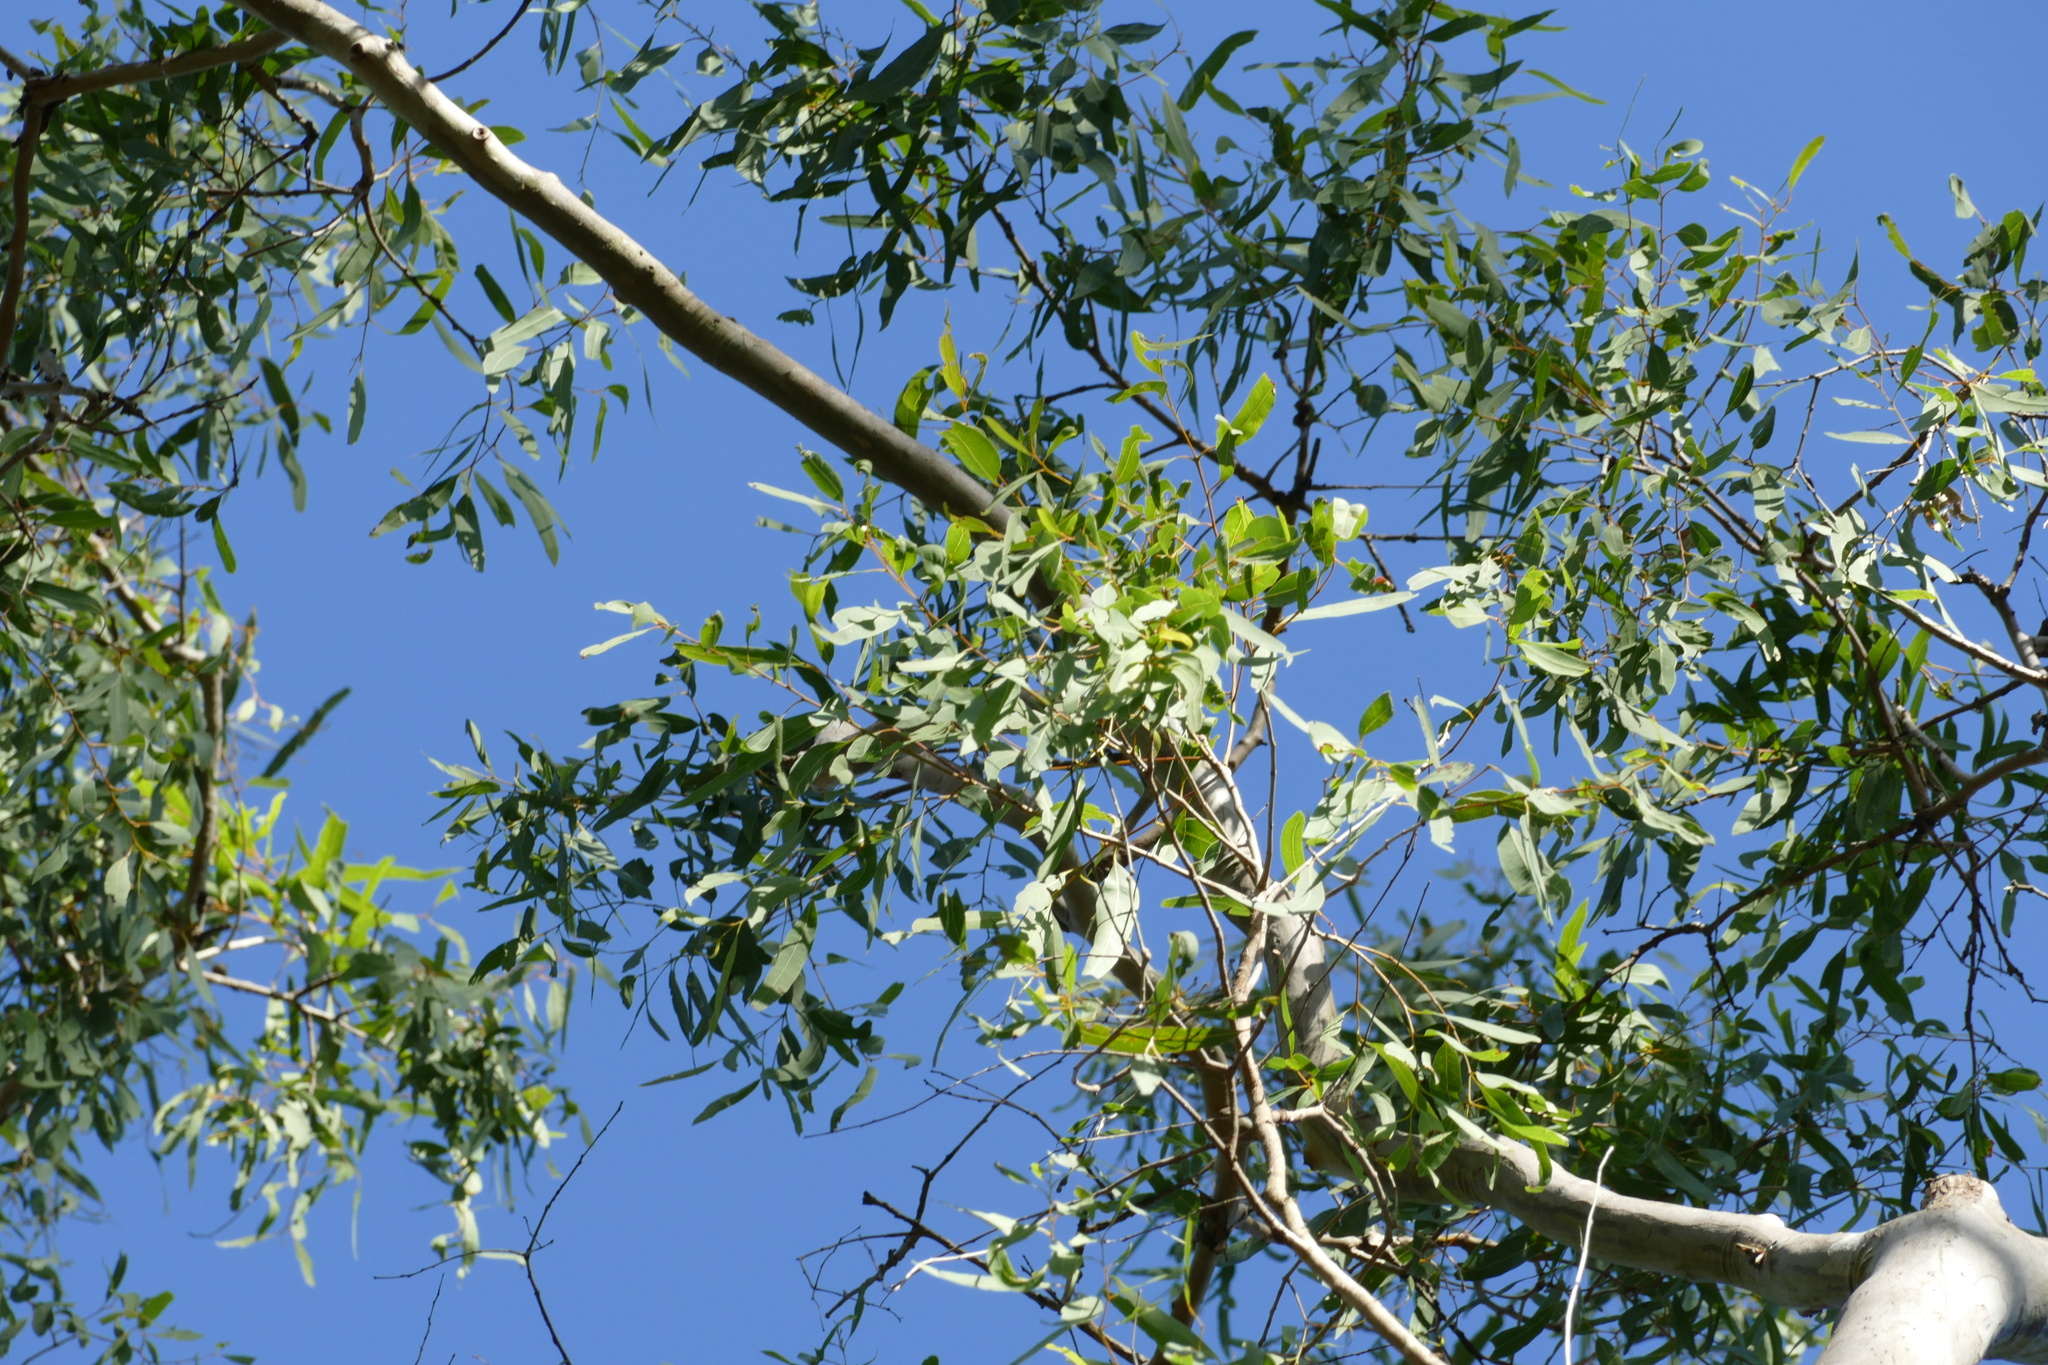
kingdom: Plantae
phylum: Tracheophyta
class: Magnoliopsida
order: Myrtales
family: Myrtaceae
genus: Corymbia
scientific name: Corymbia tessellaris
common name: Carbeen
